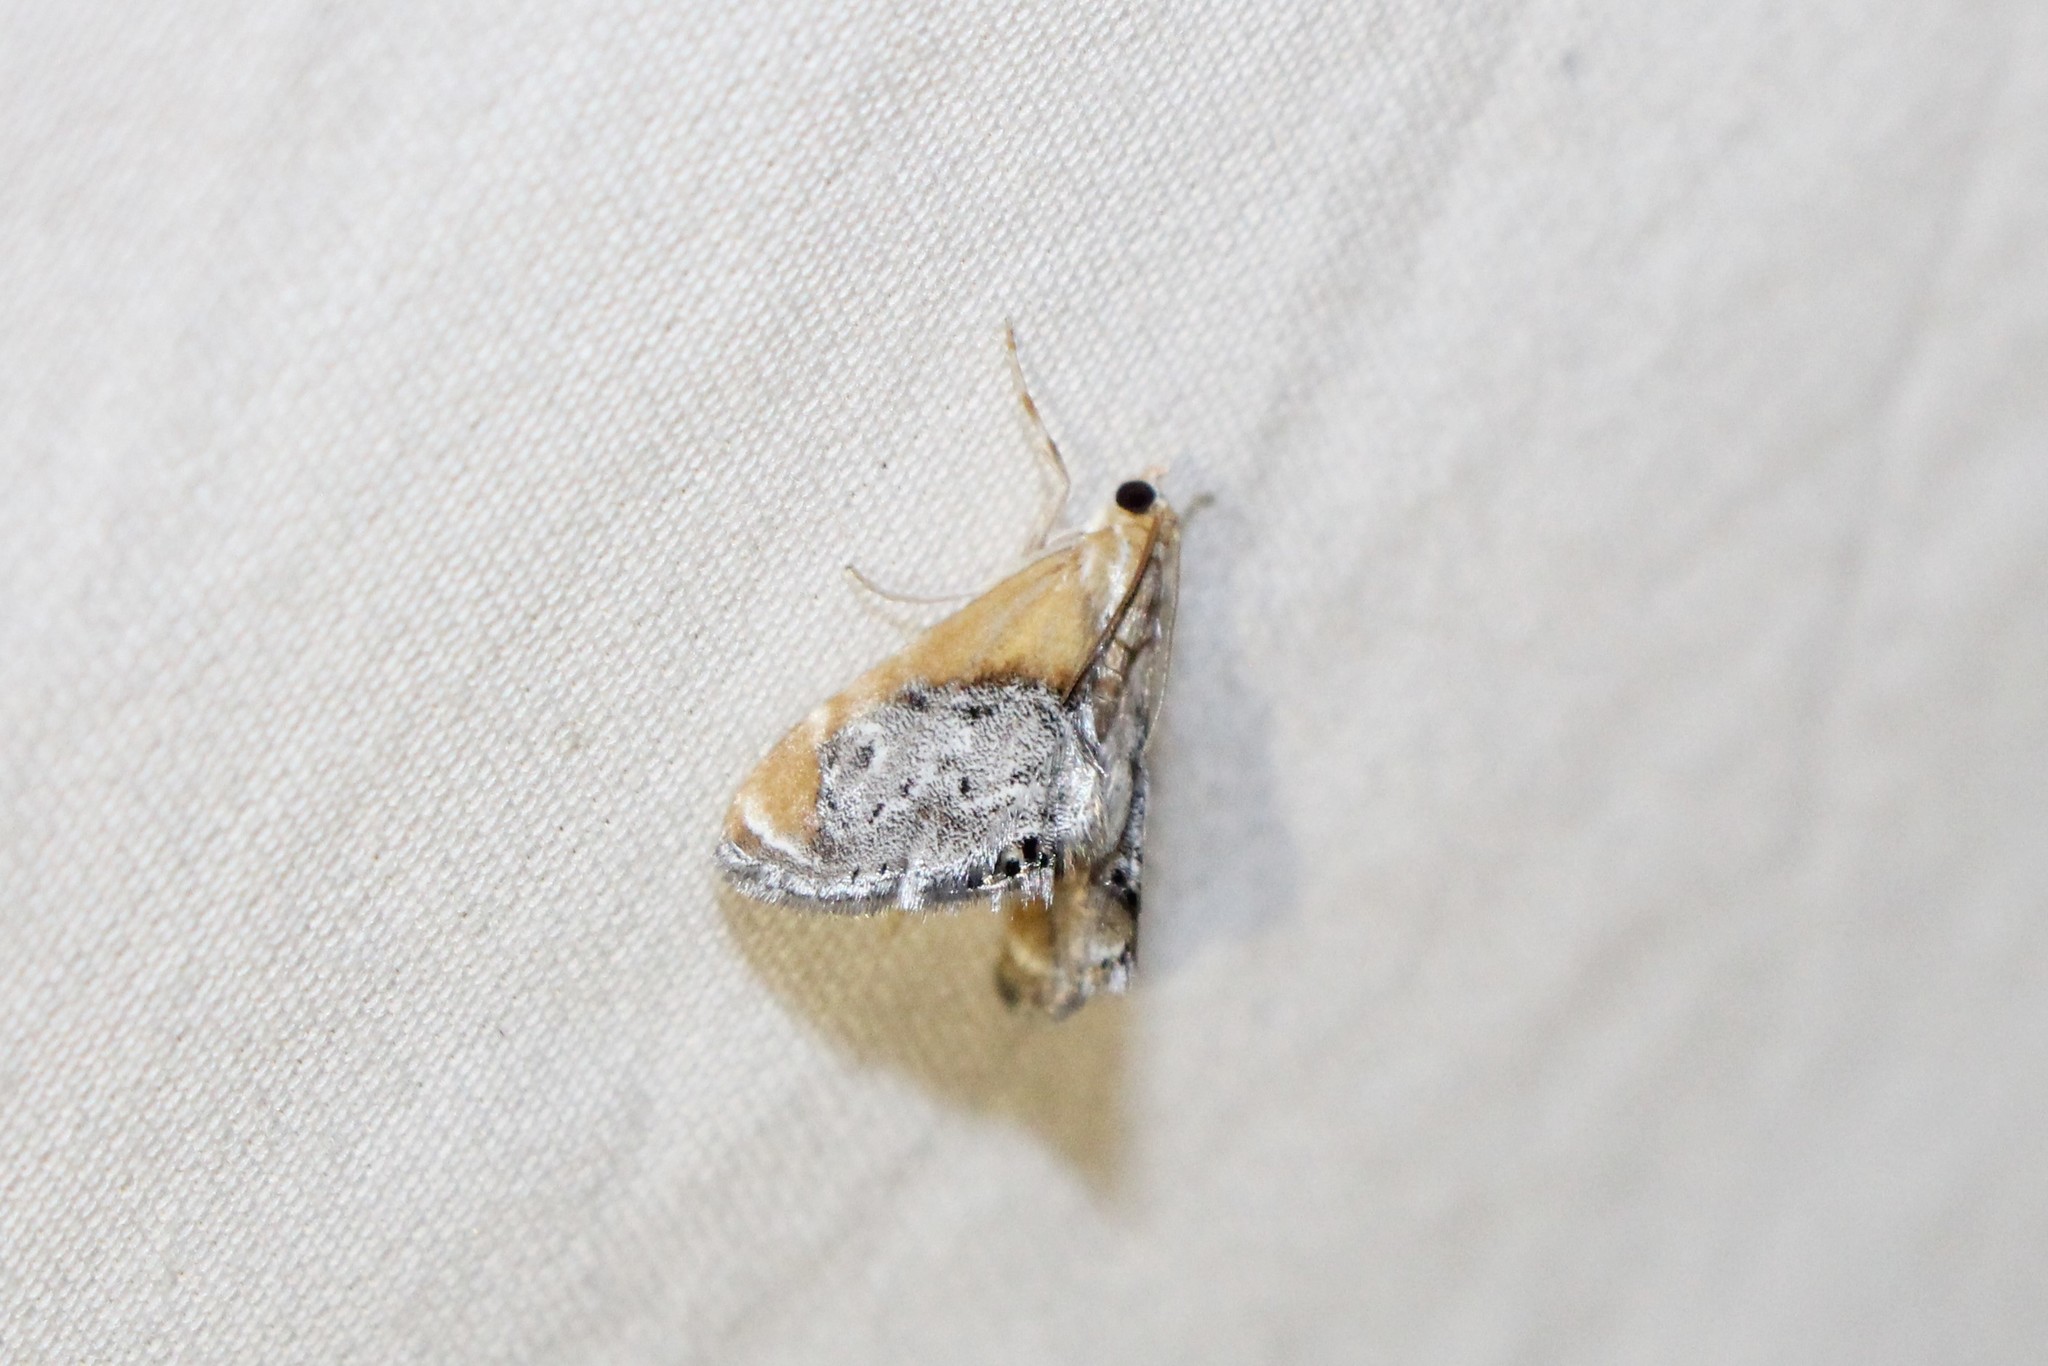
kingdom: Animalia
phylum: Arthropoda
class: Insecta
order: Lepidoptera
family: Crambidae
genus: Chalcoela
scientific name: Chalcoela iphitalis
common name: Sooty-winged chalcoela moth
